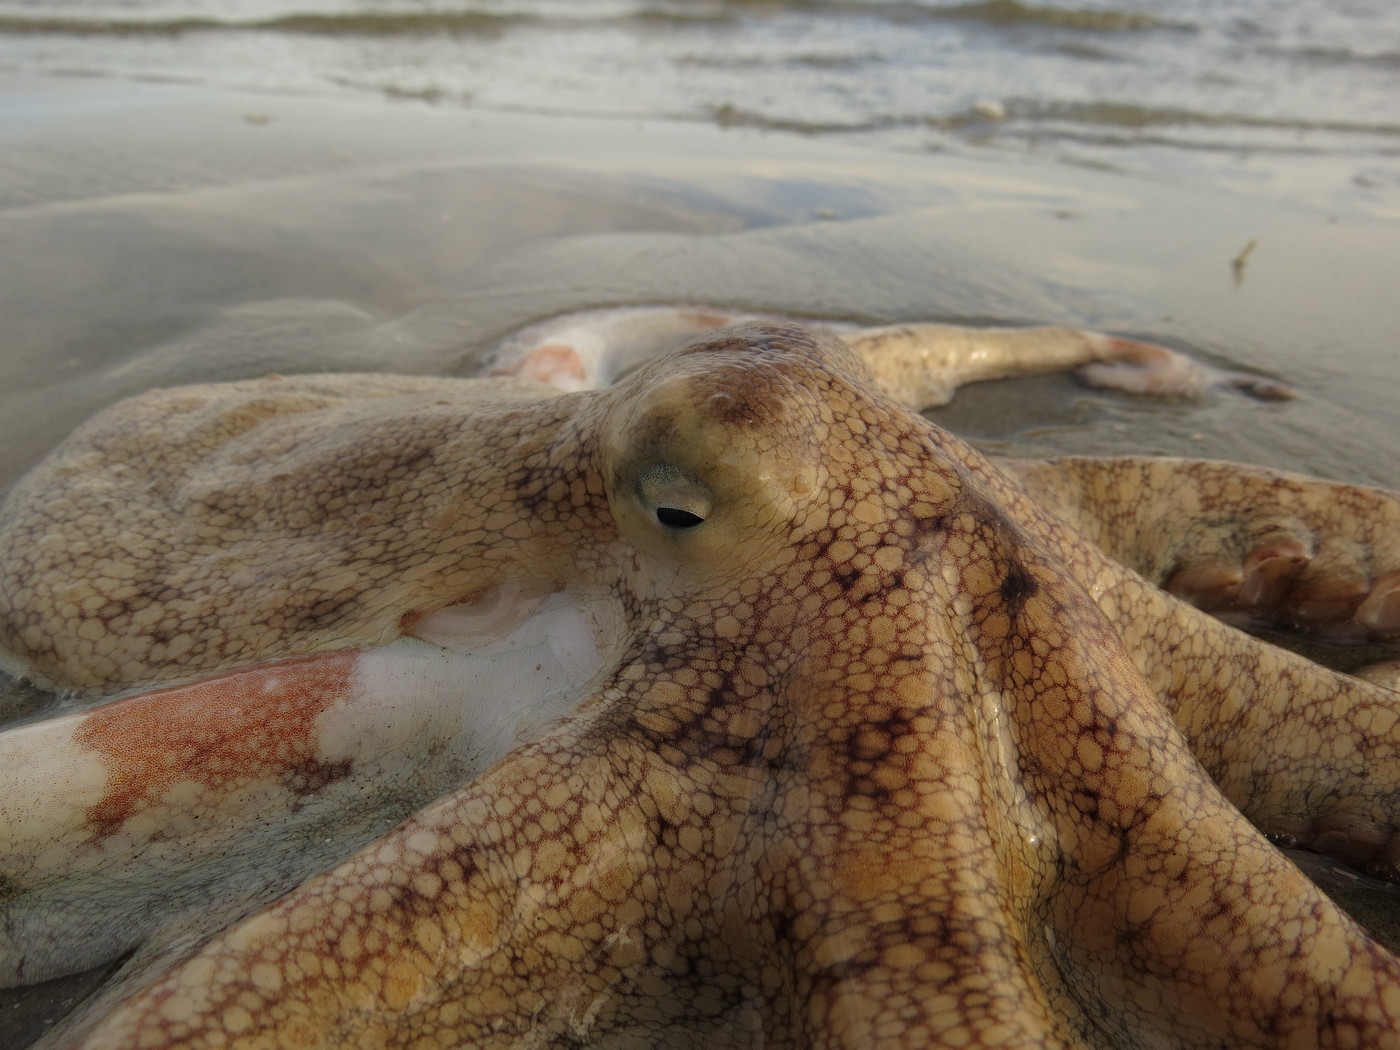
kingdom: Animalia
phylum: Mollusca
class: Cephalopoda
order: Octopoda
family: Octopodidae
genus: Octopus
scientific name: Octopus americanus
